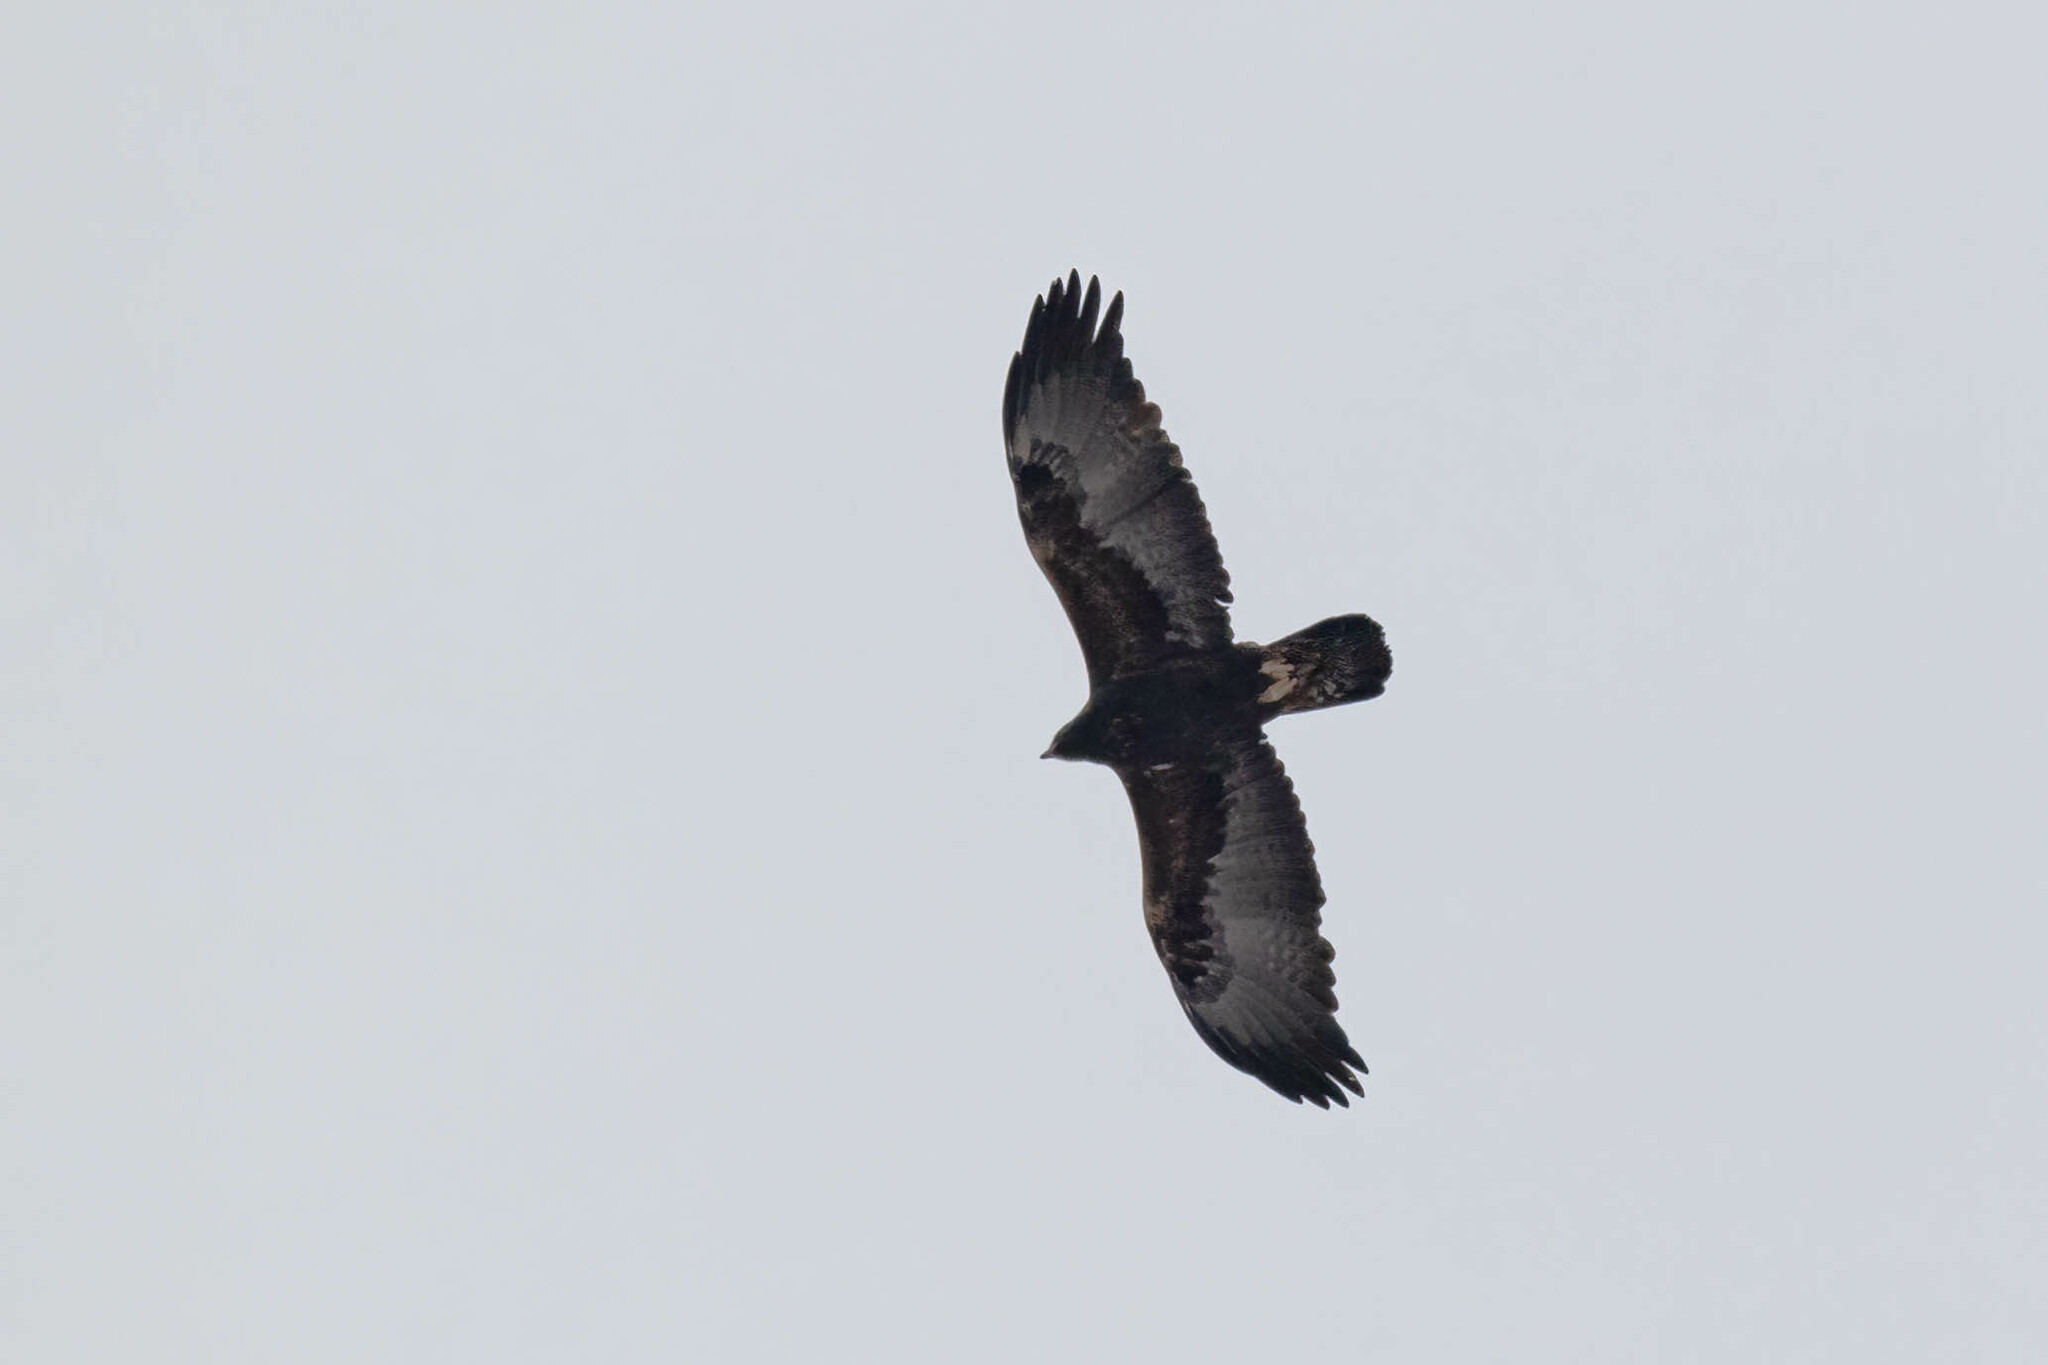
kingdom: Animalia
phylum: Chordata
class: Aves
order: Accipitriformes
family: Accipitridae
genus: Aquila
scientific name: Aquila chrysaetos
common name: Golden eagle
